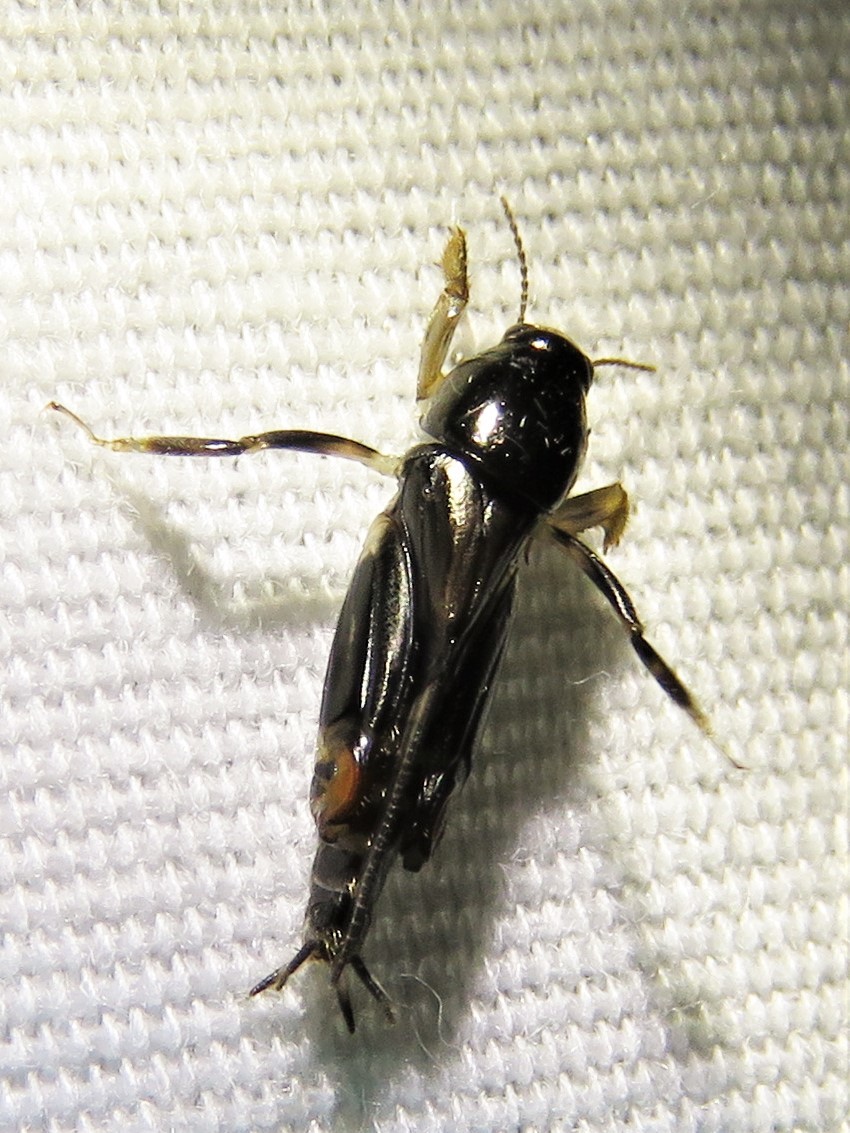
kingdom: Animalia
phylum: Arthropoda
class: Insecta
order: Orthoptera
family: Tridactylidae
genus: Neotridactylus
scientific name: Neotridactylus apicialis
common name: Larger pygmy locust
